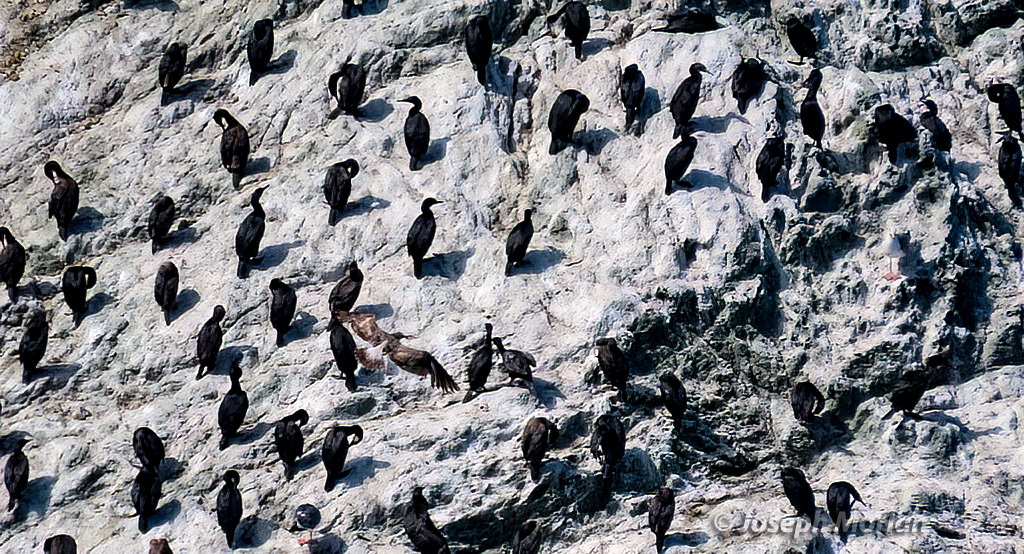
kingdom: Animalia
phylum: Chordata
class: Aves
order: Suliformes
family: Phalacrocoracidae
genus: Urile
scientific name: Urile penicillatus
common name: Brandt's cormorant
